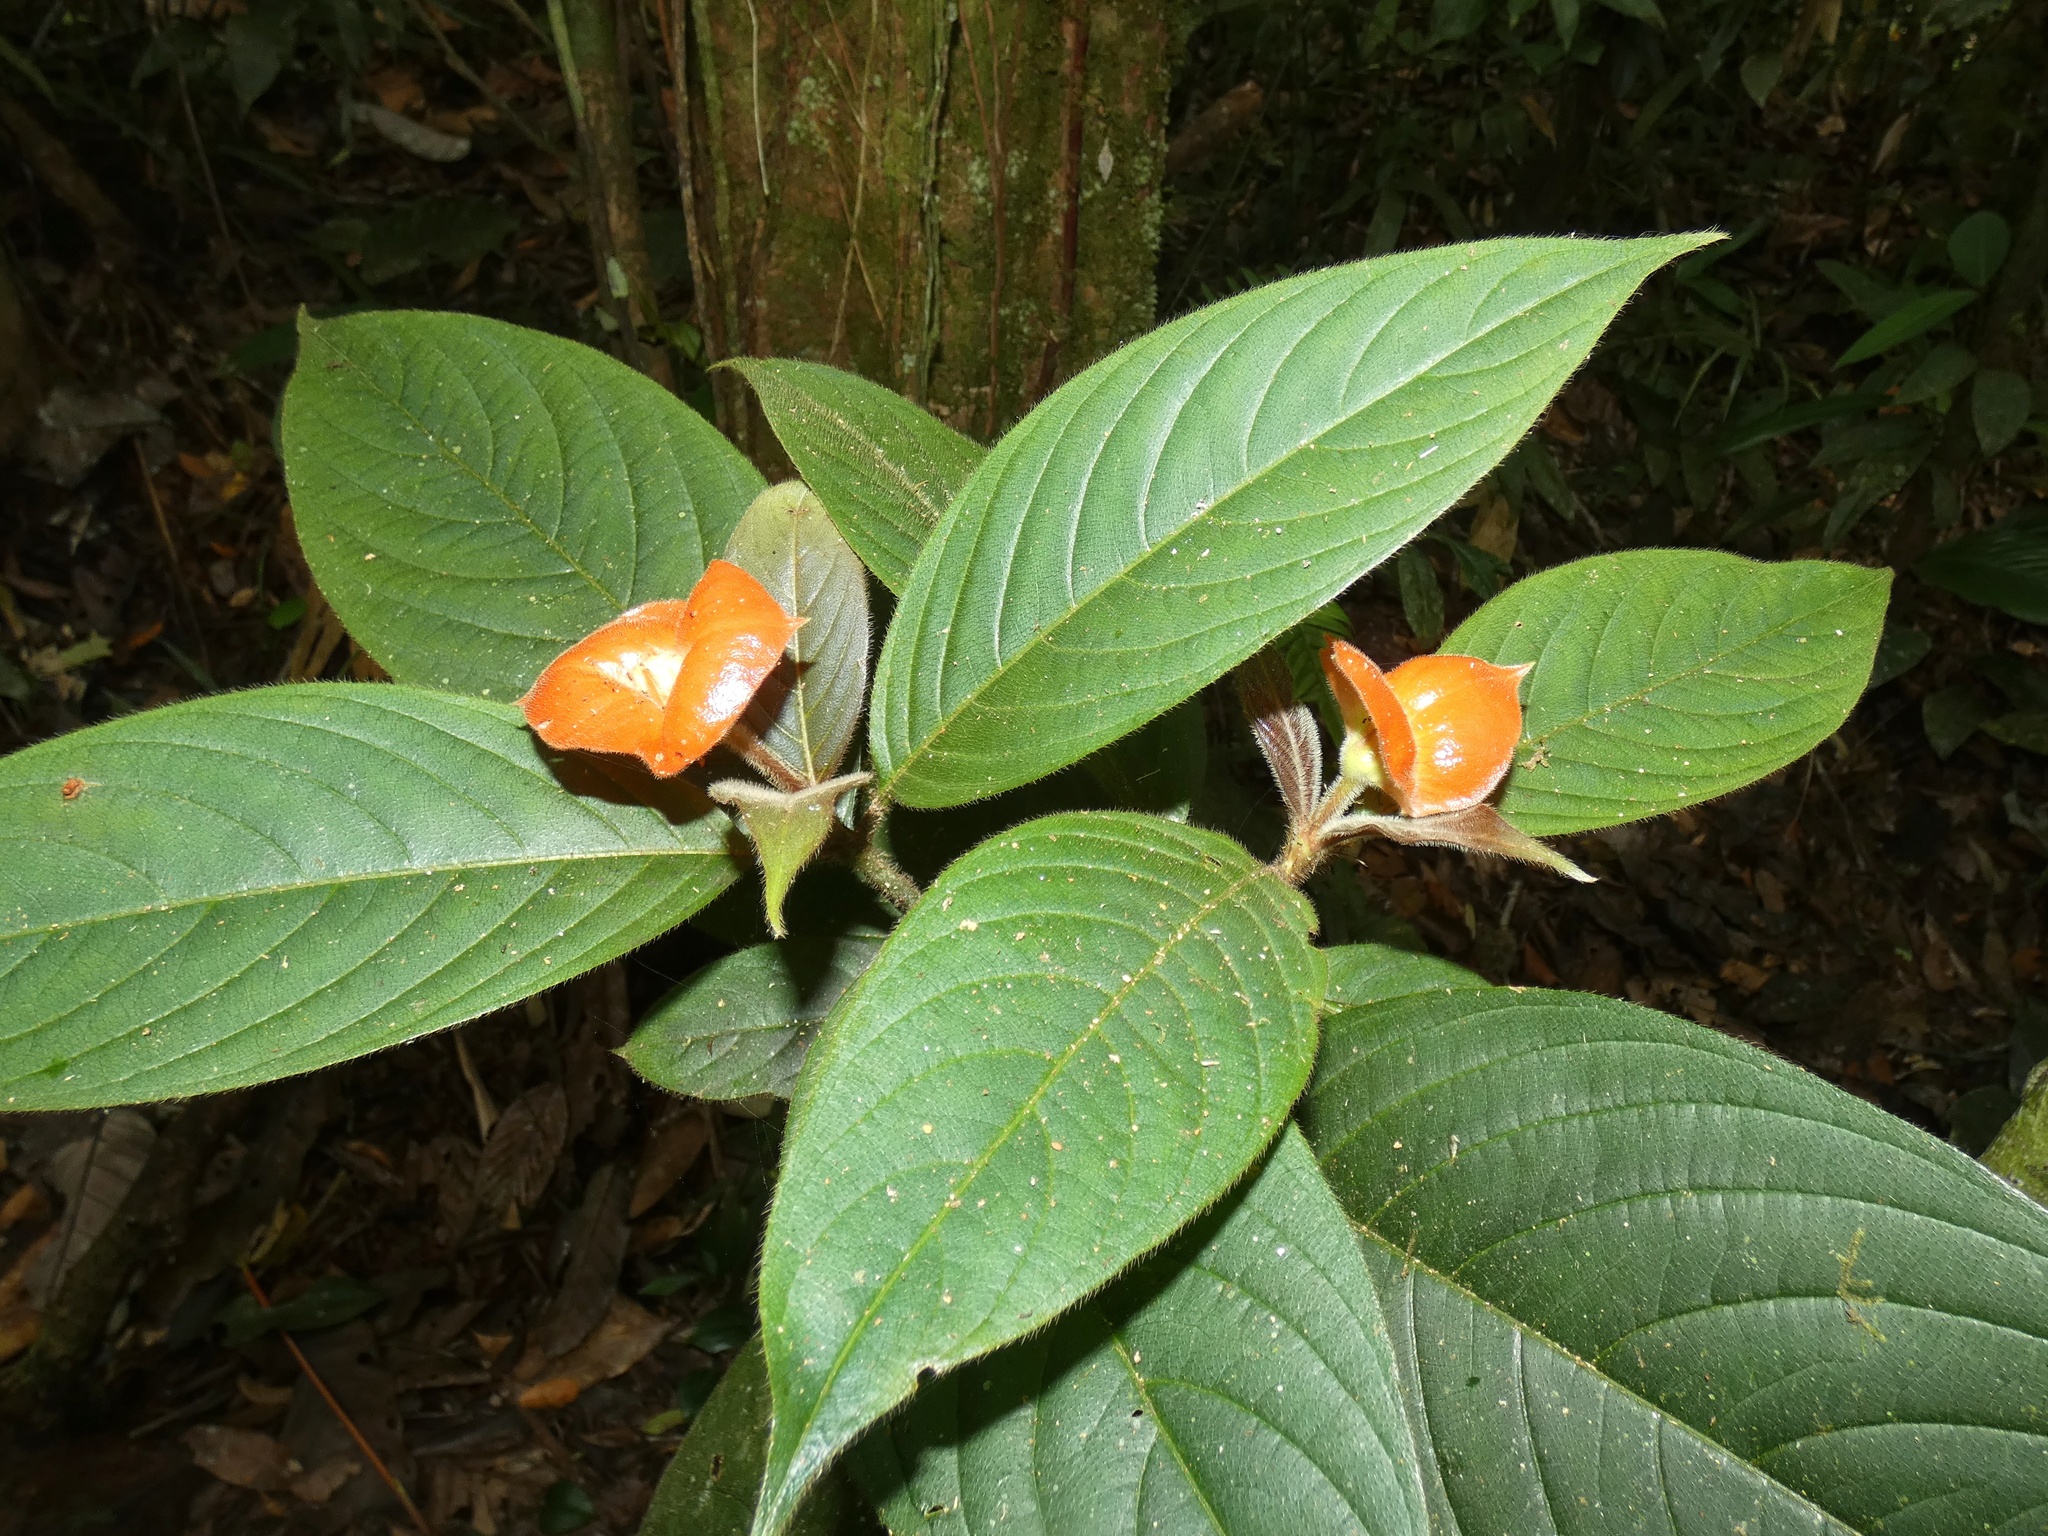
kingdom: Plantae
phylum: Tracheophyta
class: Magnoliopsida
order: Gentianales
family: Rubiaceae
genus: Palicourea
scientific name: Palicourea tomentosa
